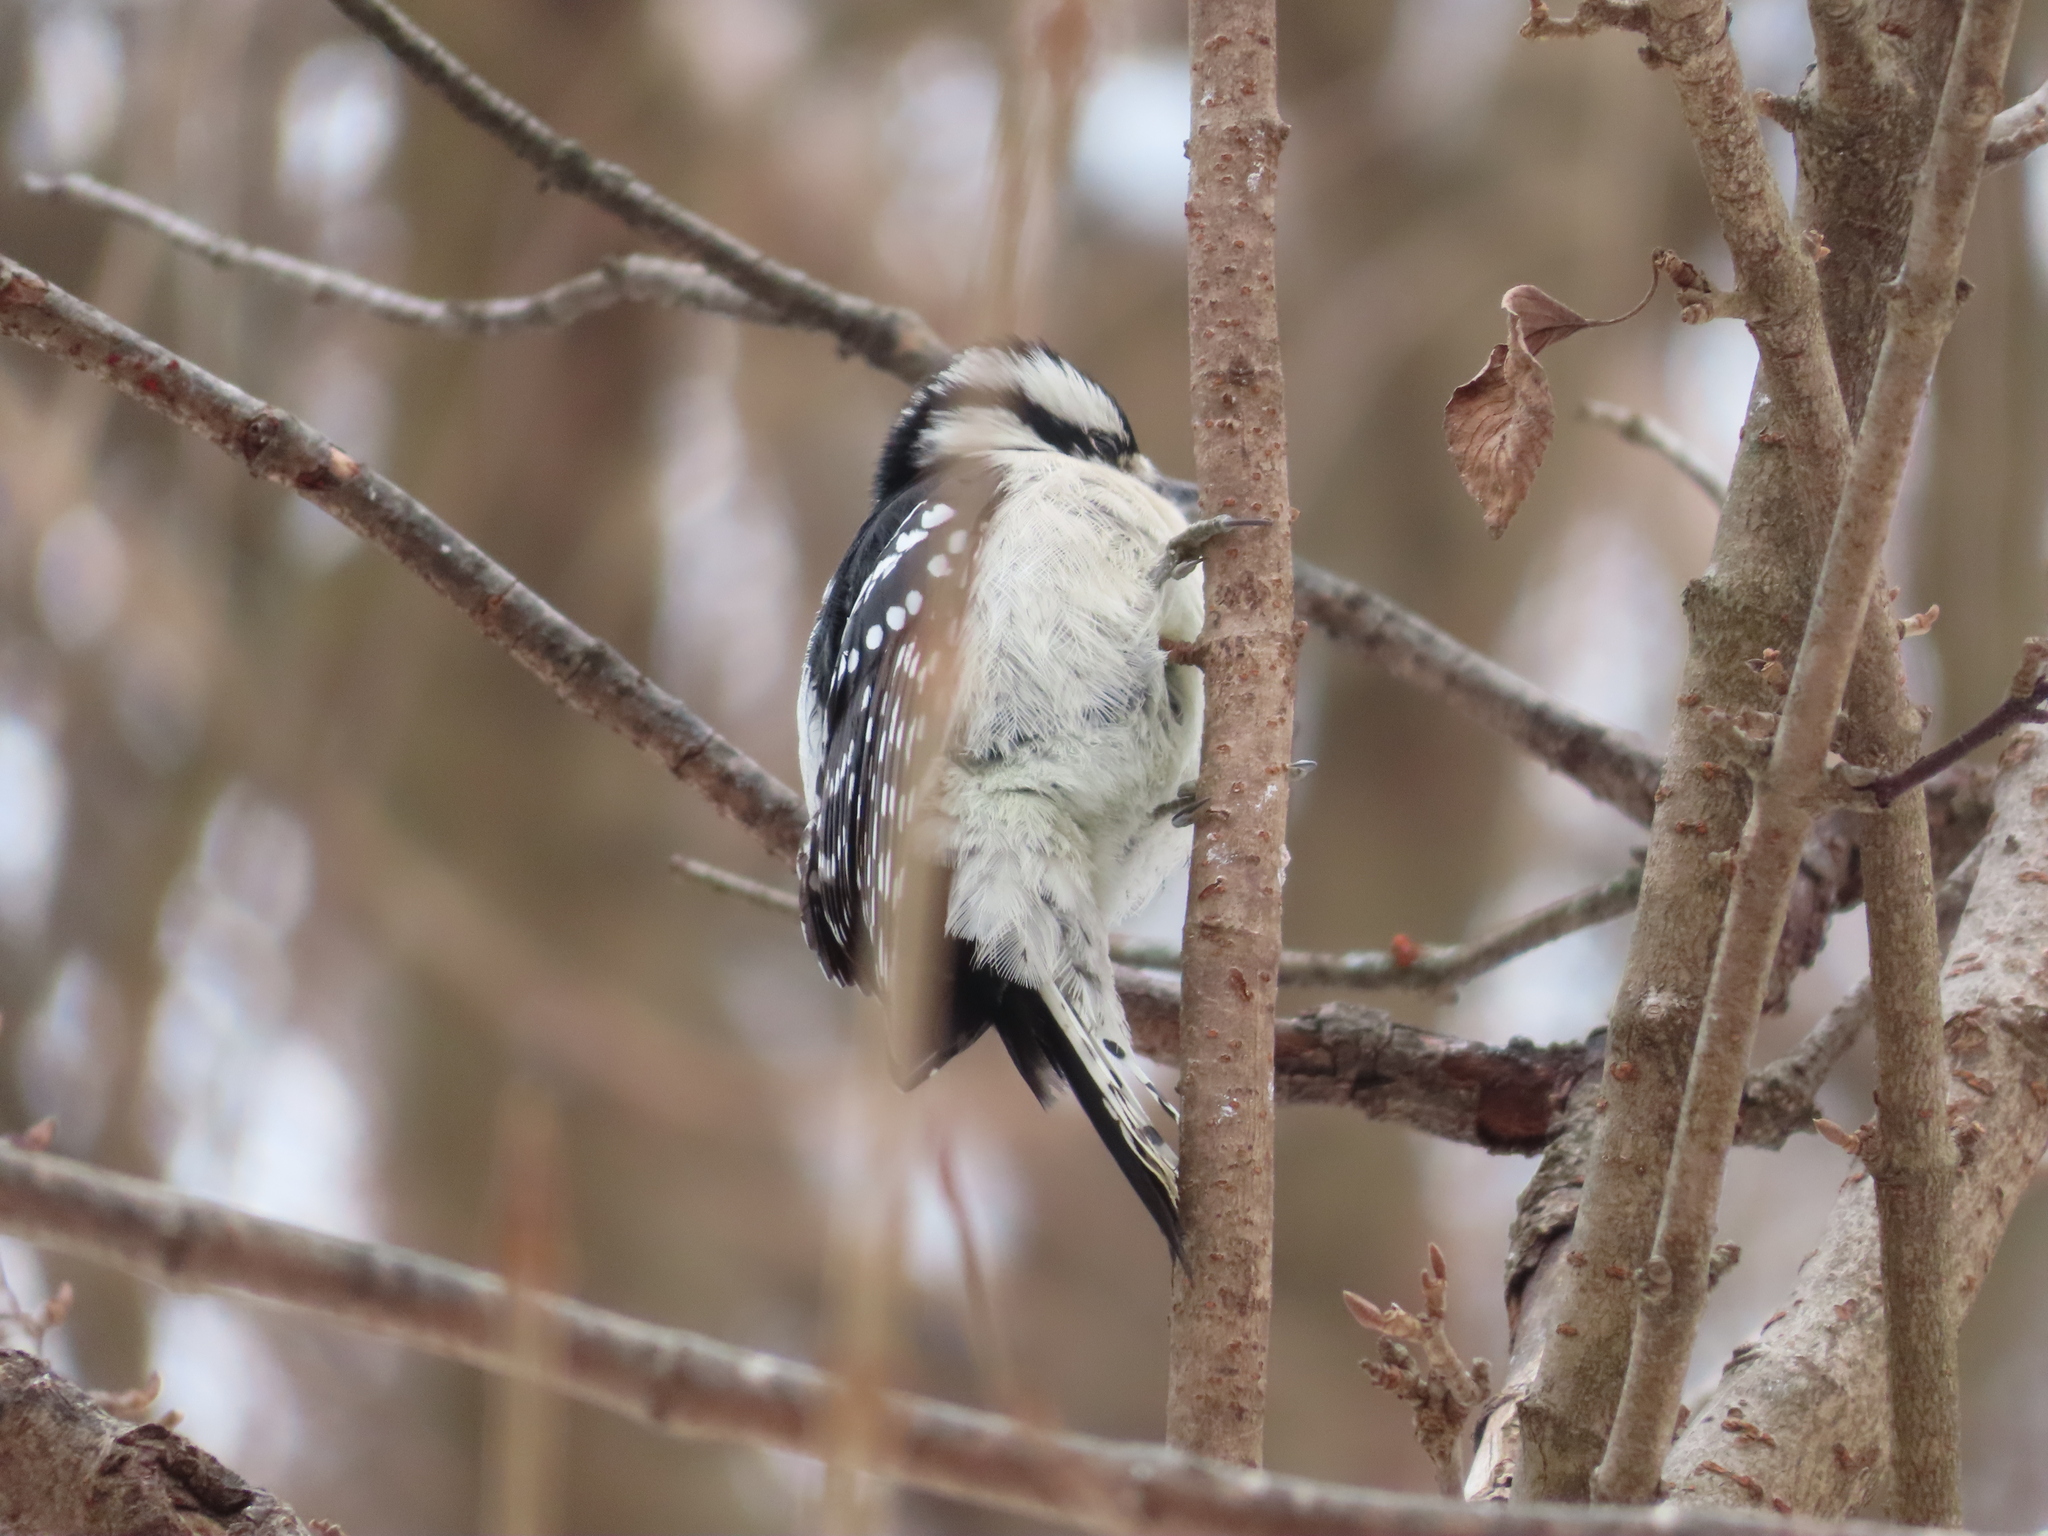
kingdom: Animalia
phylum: Chordata
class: Aves
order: Piciformes
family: Picidae
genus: Dryobates
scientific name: Dryobates pubescens
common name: Downy woodpecker
